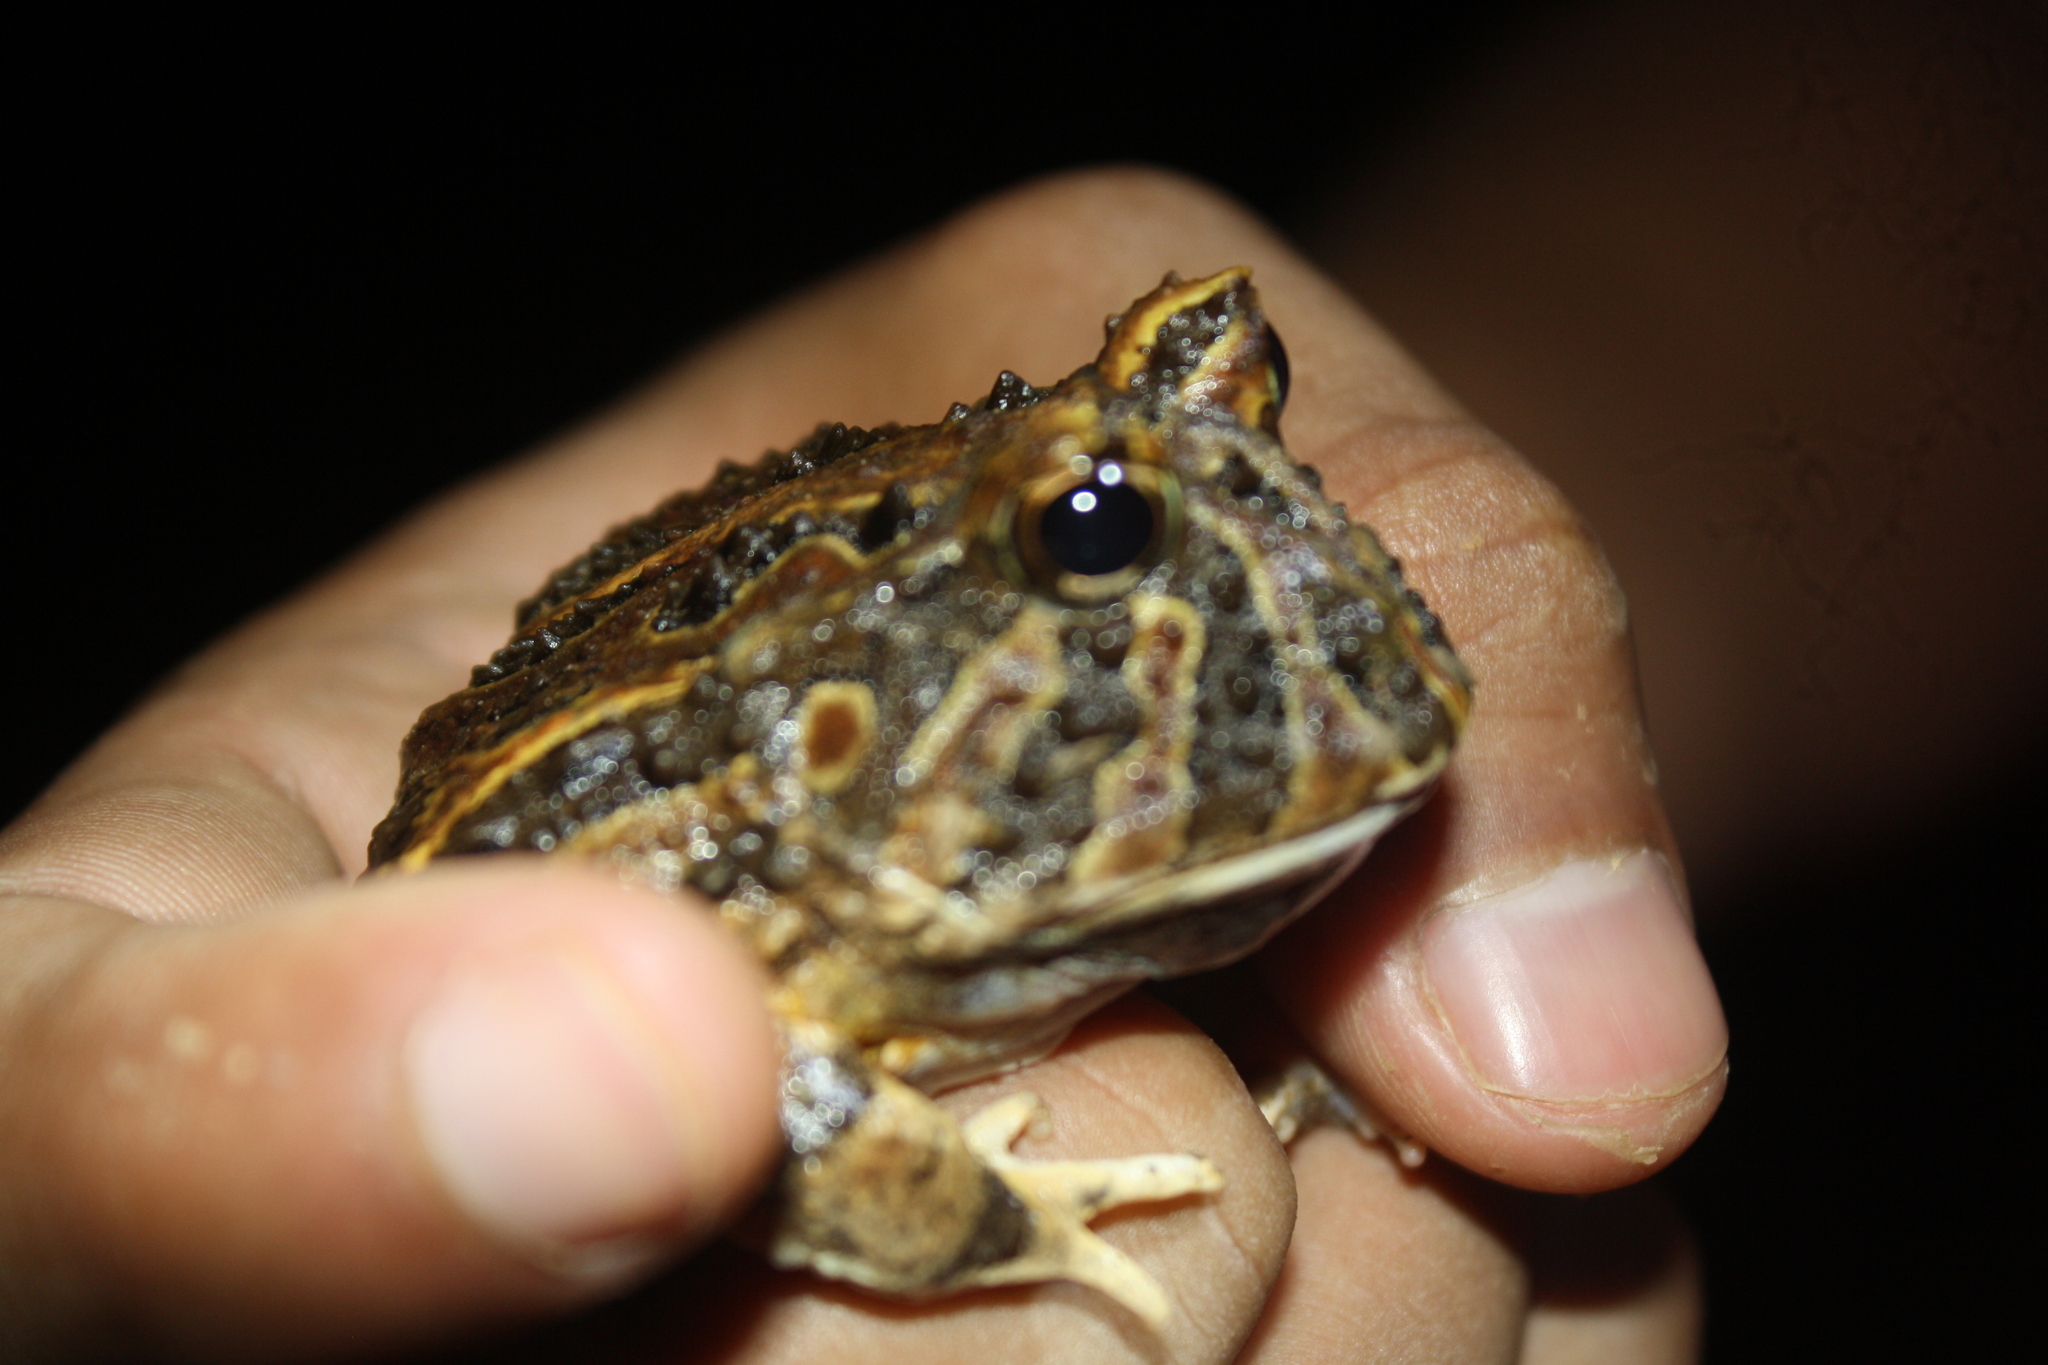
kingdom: Animalia
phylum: Chordata
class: Amphibia
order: Anura
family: Ceratophryidae
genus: Ceratophrys
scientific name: Ceratophrys calcarata
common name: Venezuelan horned frog
